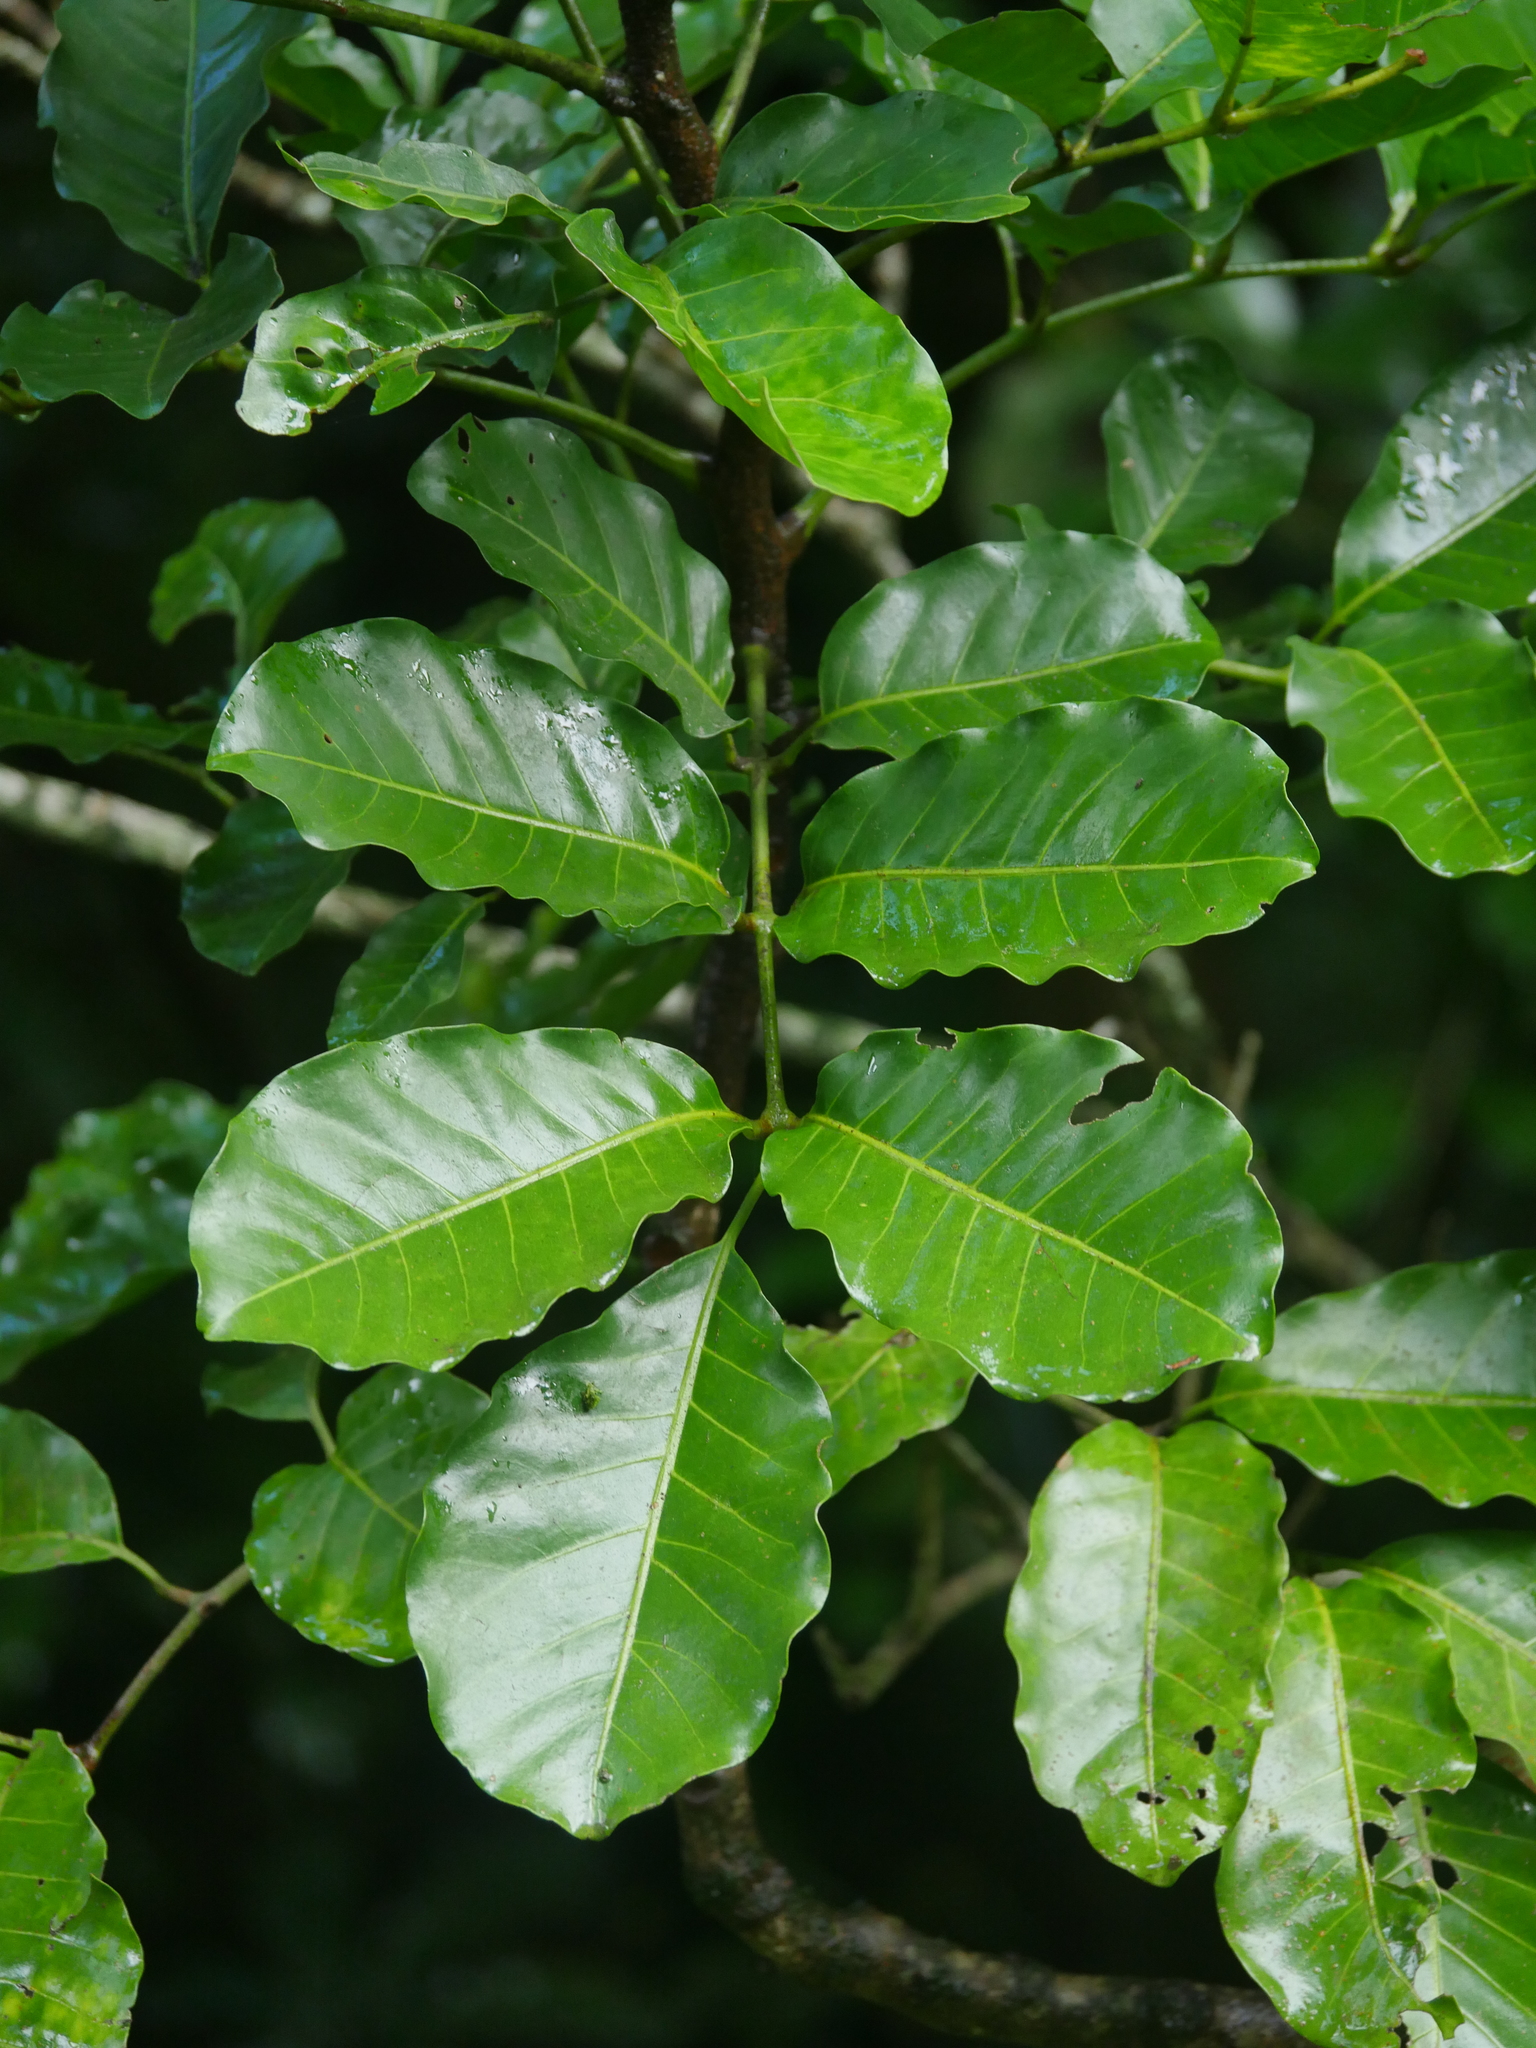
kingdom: Plantae
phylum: Tracheophyta
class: Magnoliopsida
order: Sapindales
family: Meliaceae
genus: Didymocheton
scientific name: Didymocheton spectabilis
